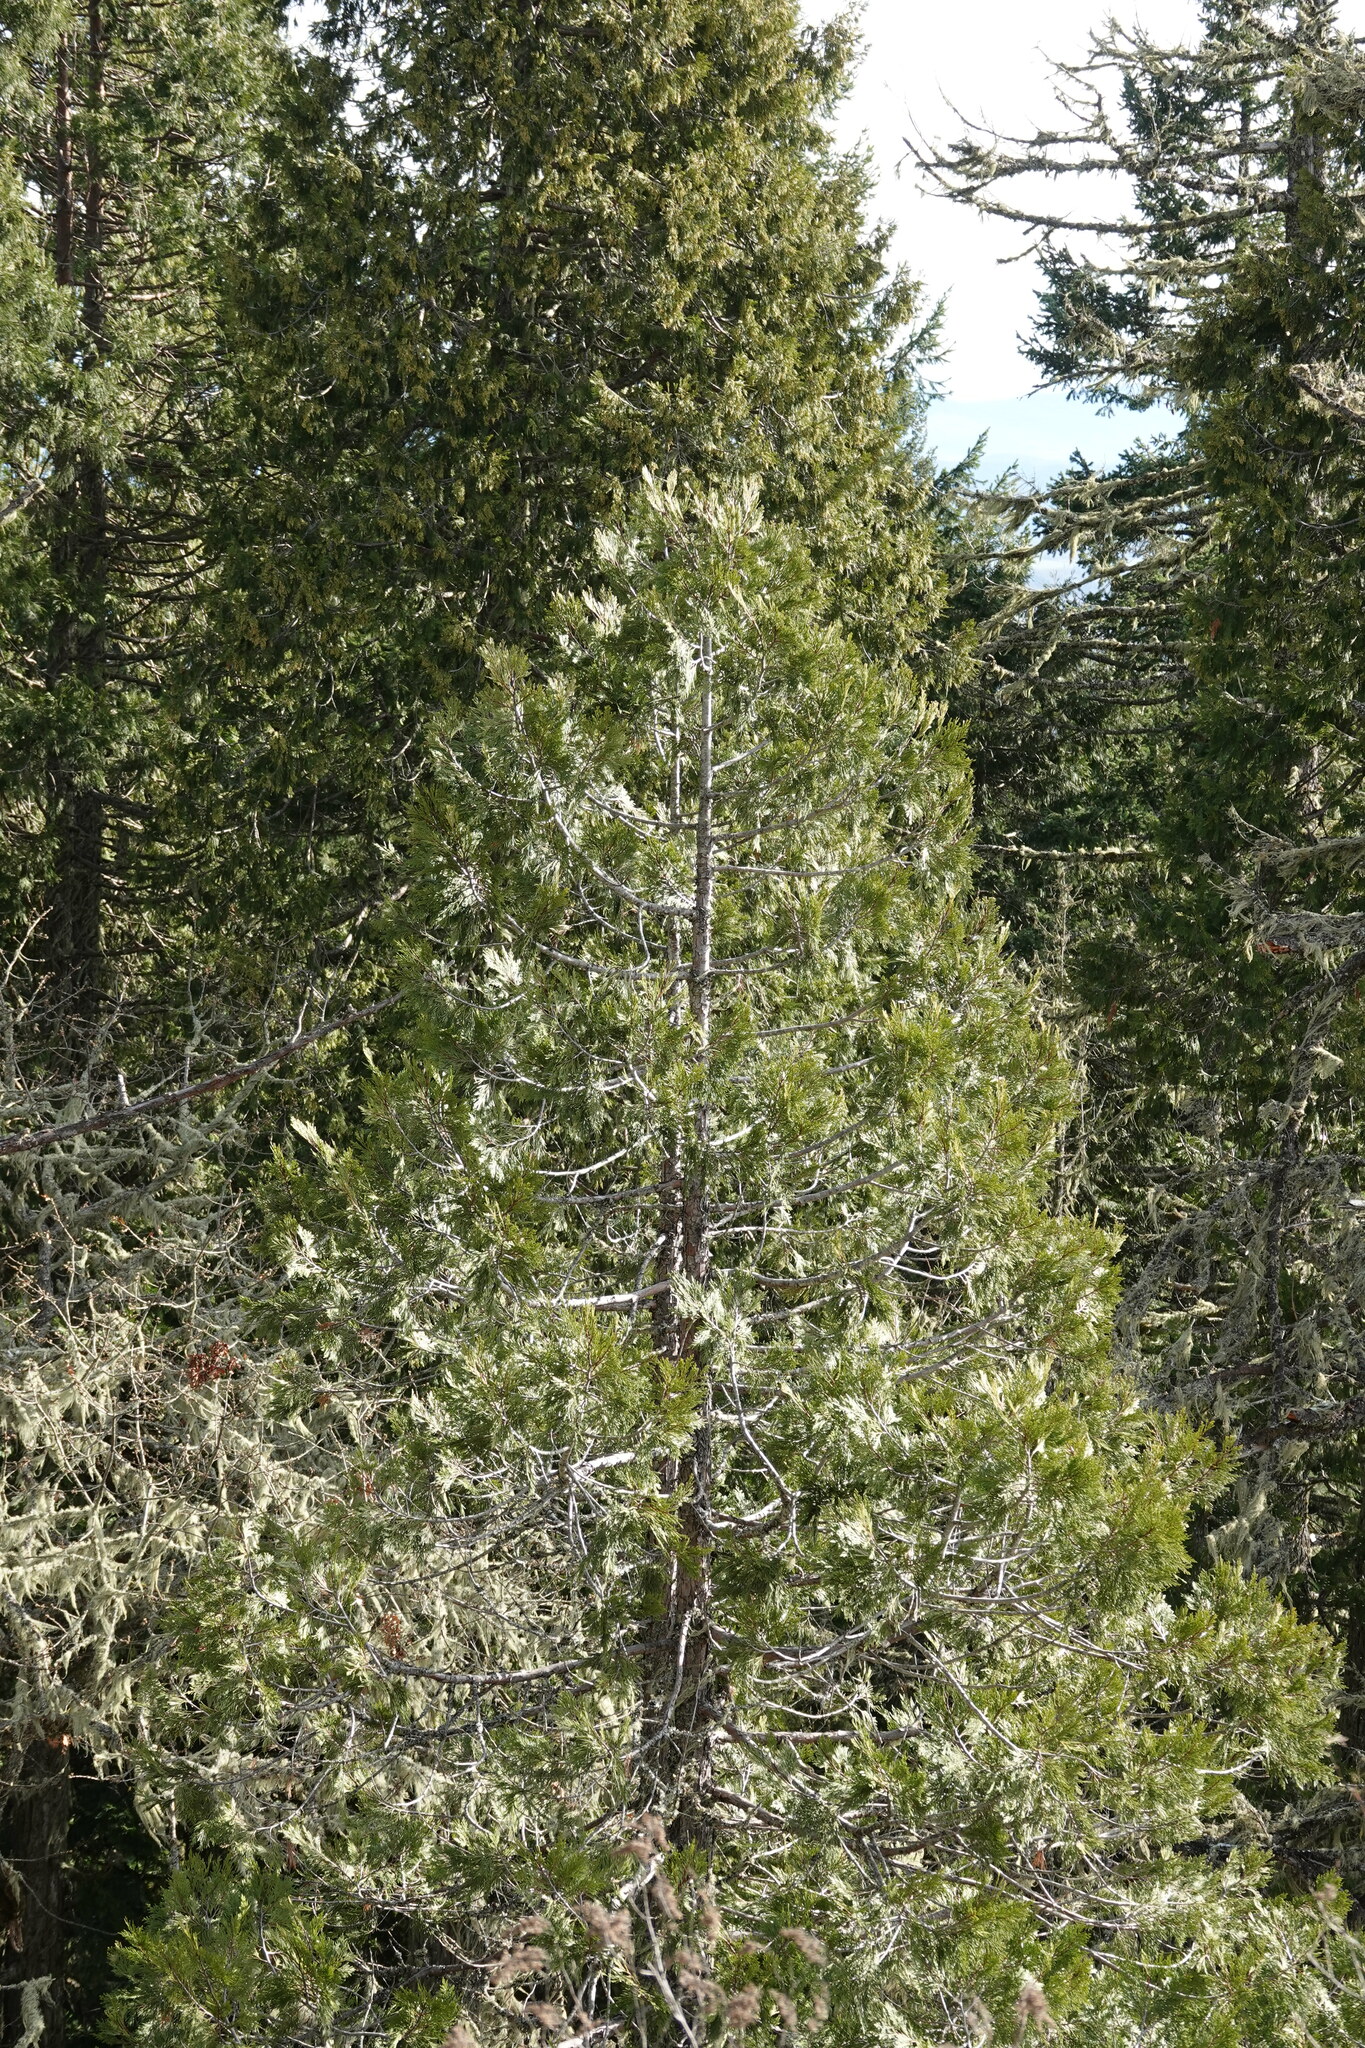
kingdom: Plantae
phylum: Tracheophyta
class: Pinopsida
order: Pinales
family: Cupressaceae
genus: Calocedrus
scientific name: Calocedrus decurrens
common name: Californian incense-cedar
